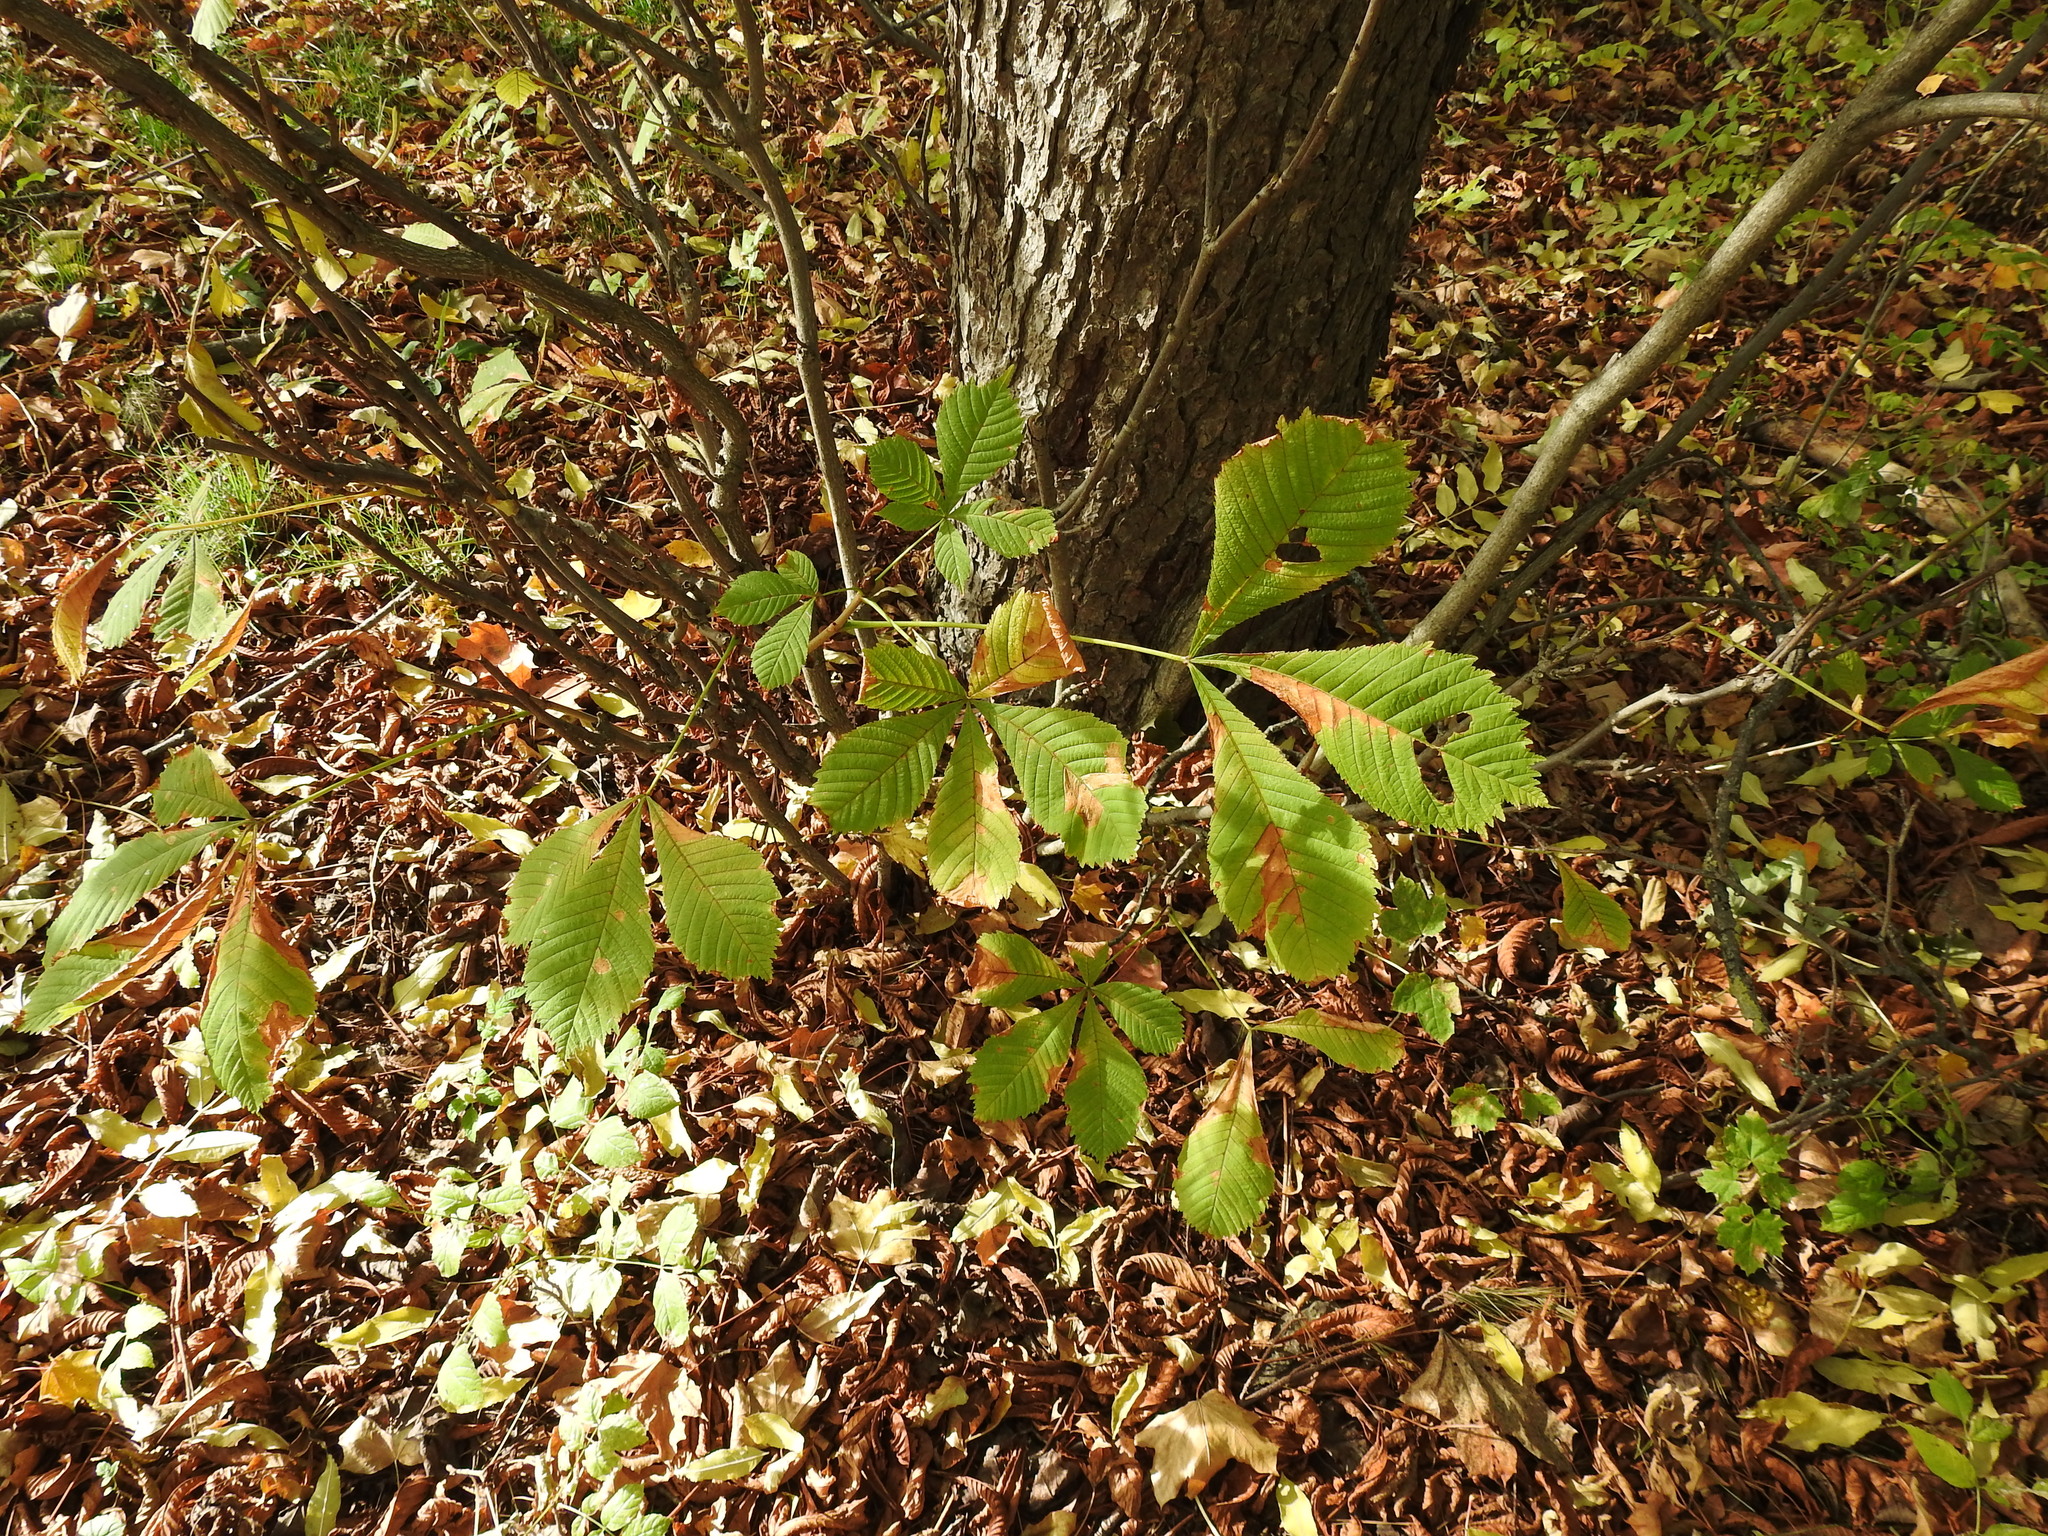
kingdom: Plantae
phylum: Tracheophyta
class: Magnoliopsida
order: Sapindales
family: Sapindaceae
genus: Aesculus
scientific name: Aesculus hippocastanum
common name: Horse-chestnut
